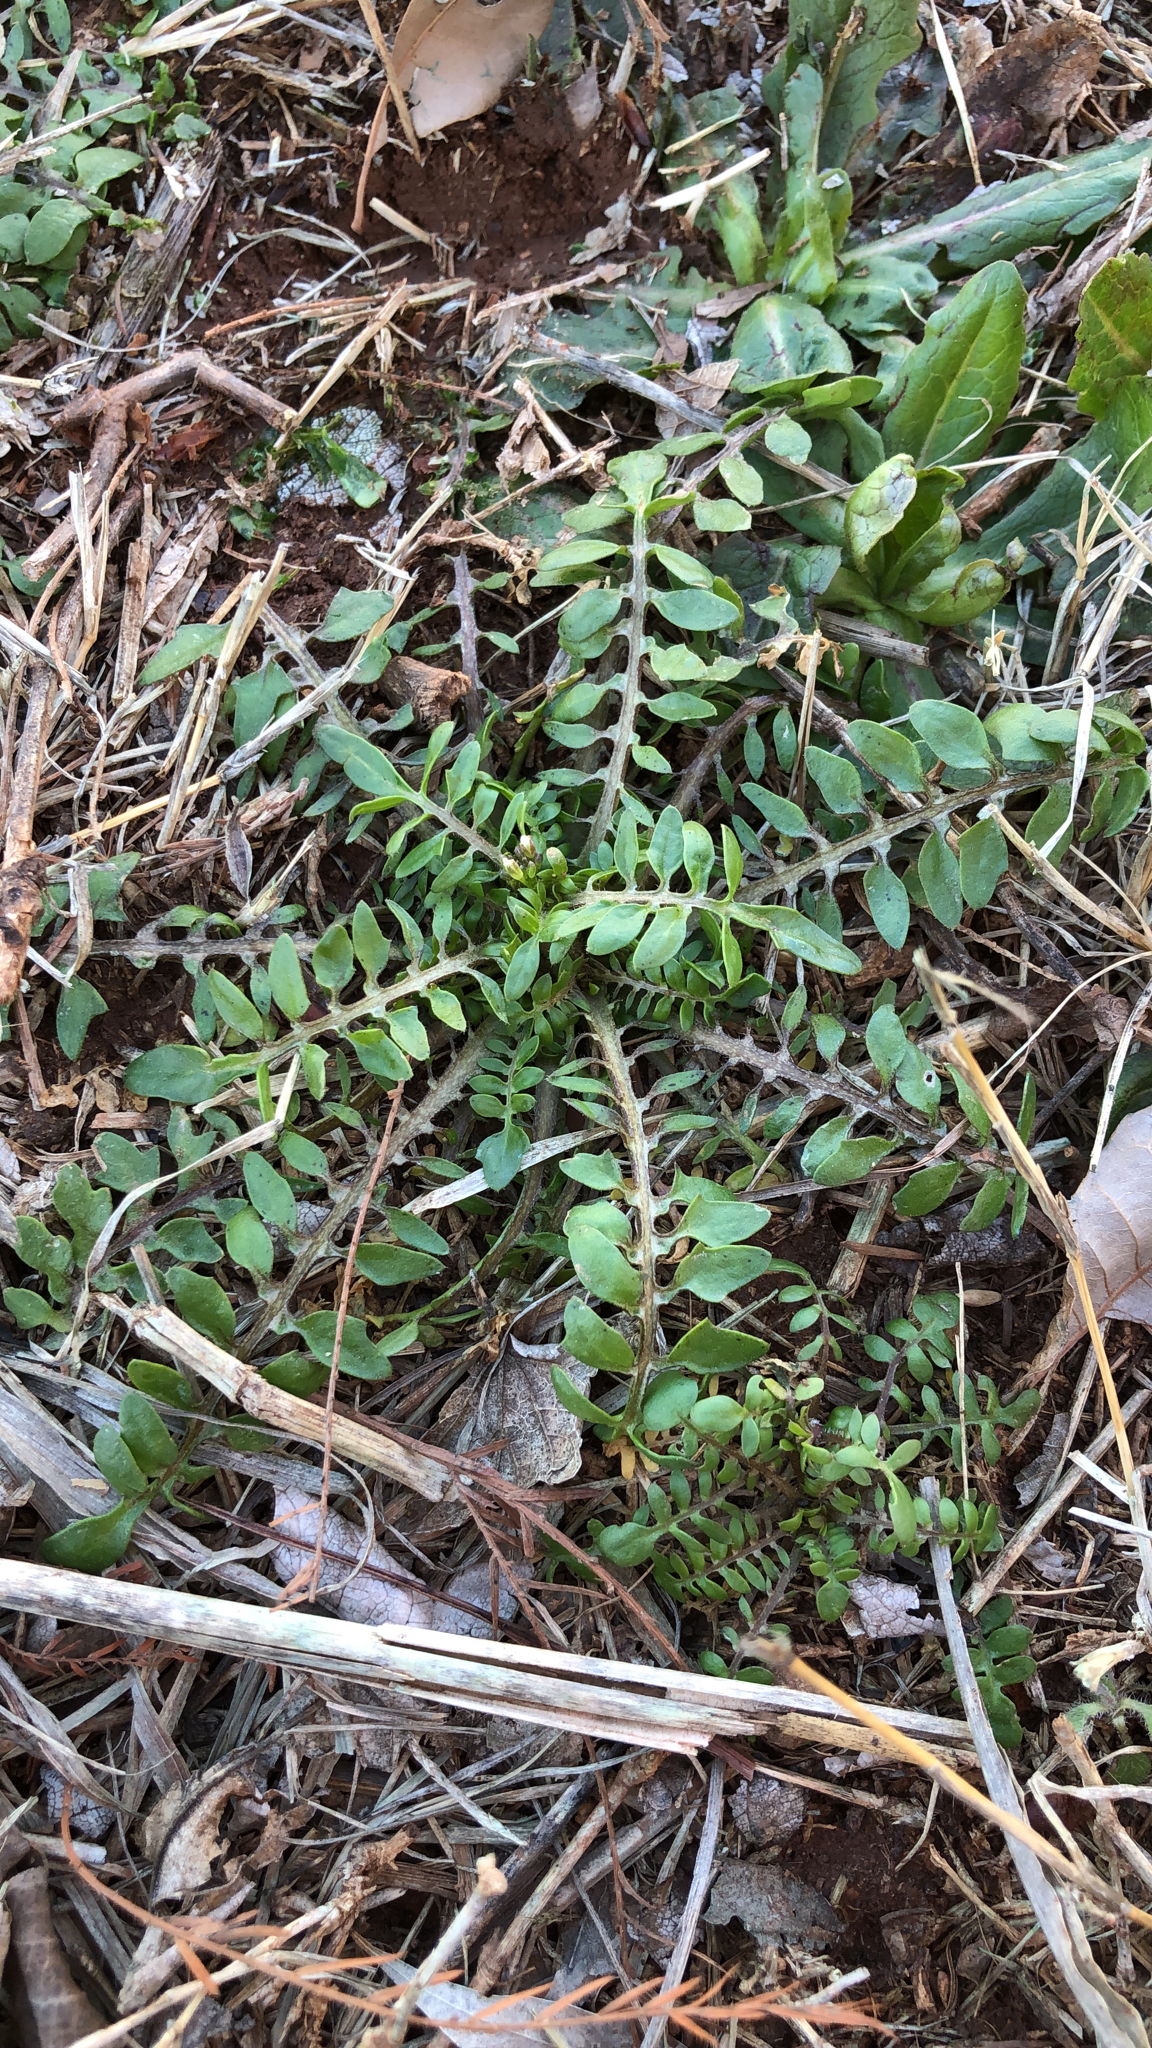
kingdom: Plantae
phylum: Tracheophyta
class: Magnoliopsida
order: Brassicales
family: Brassicaceae
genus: Planodes
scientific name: Planodes virginicum
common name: Virginia cress
